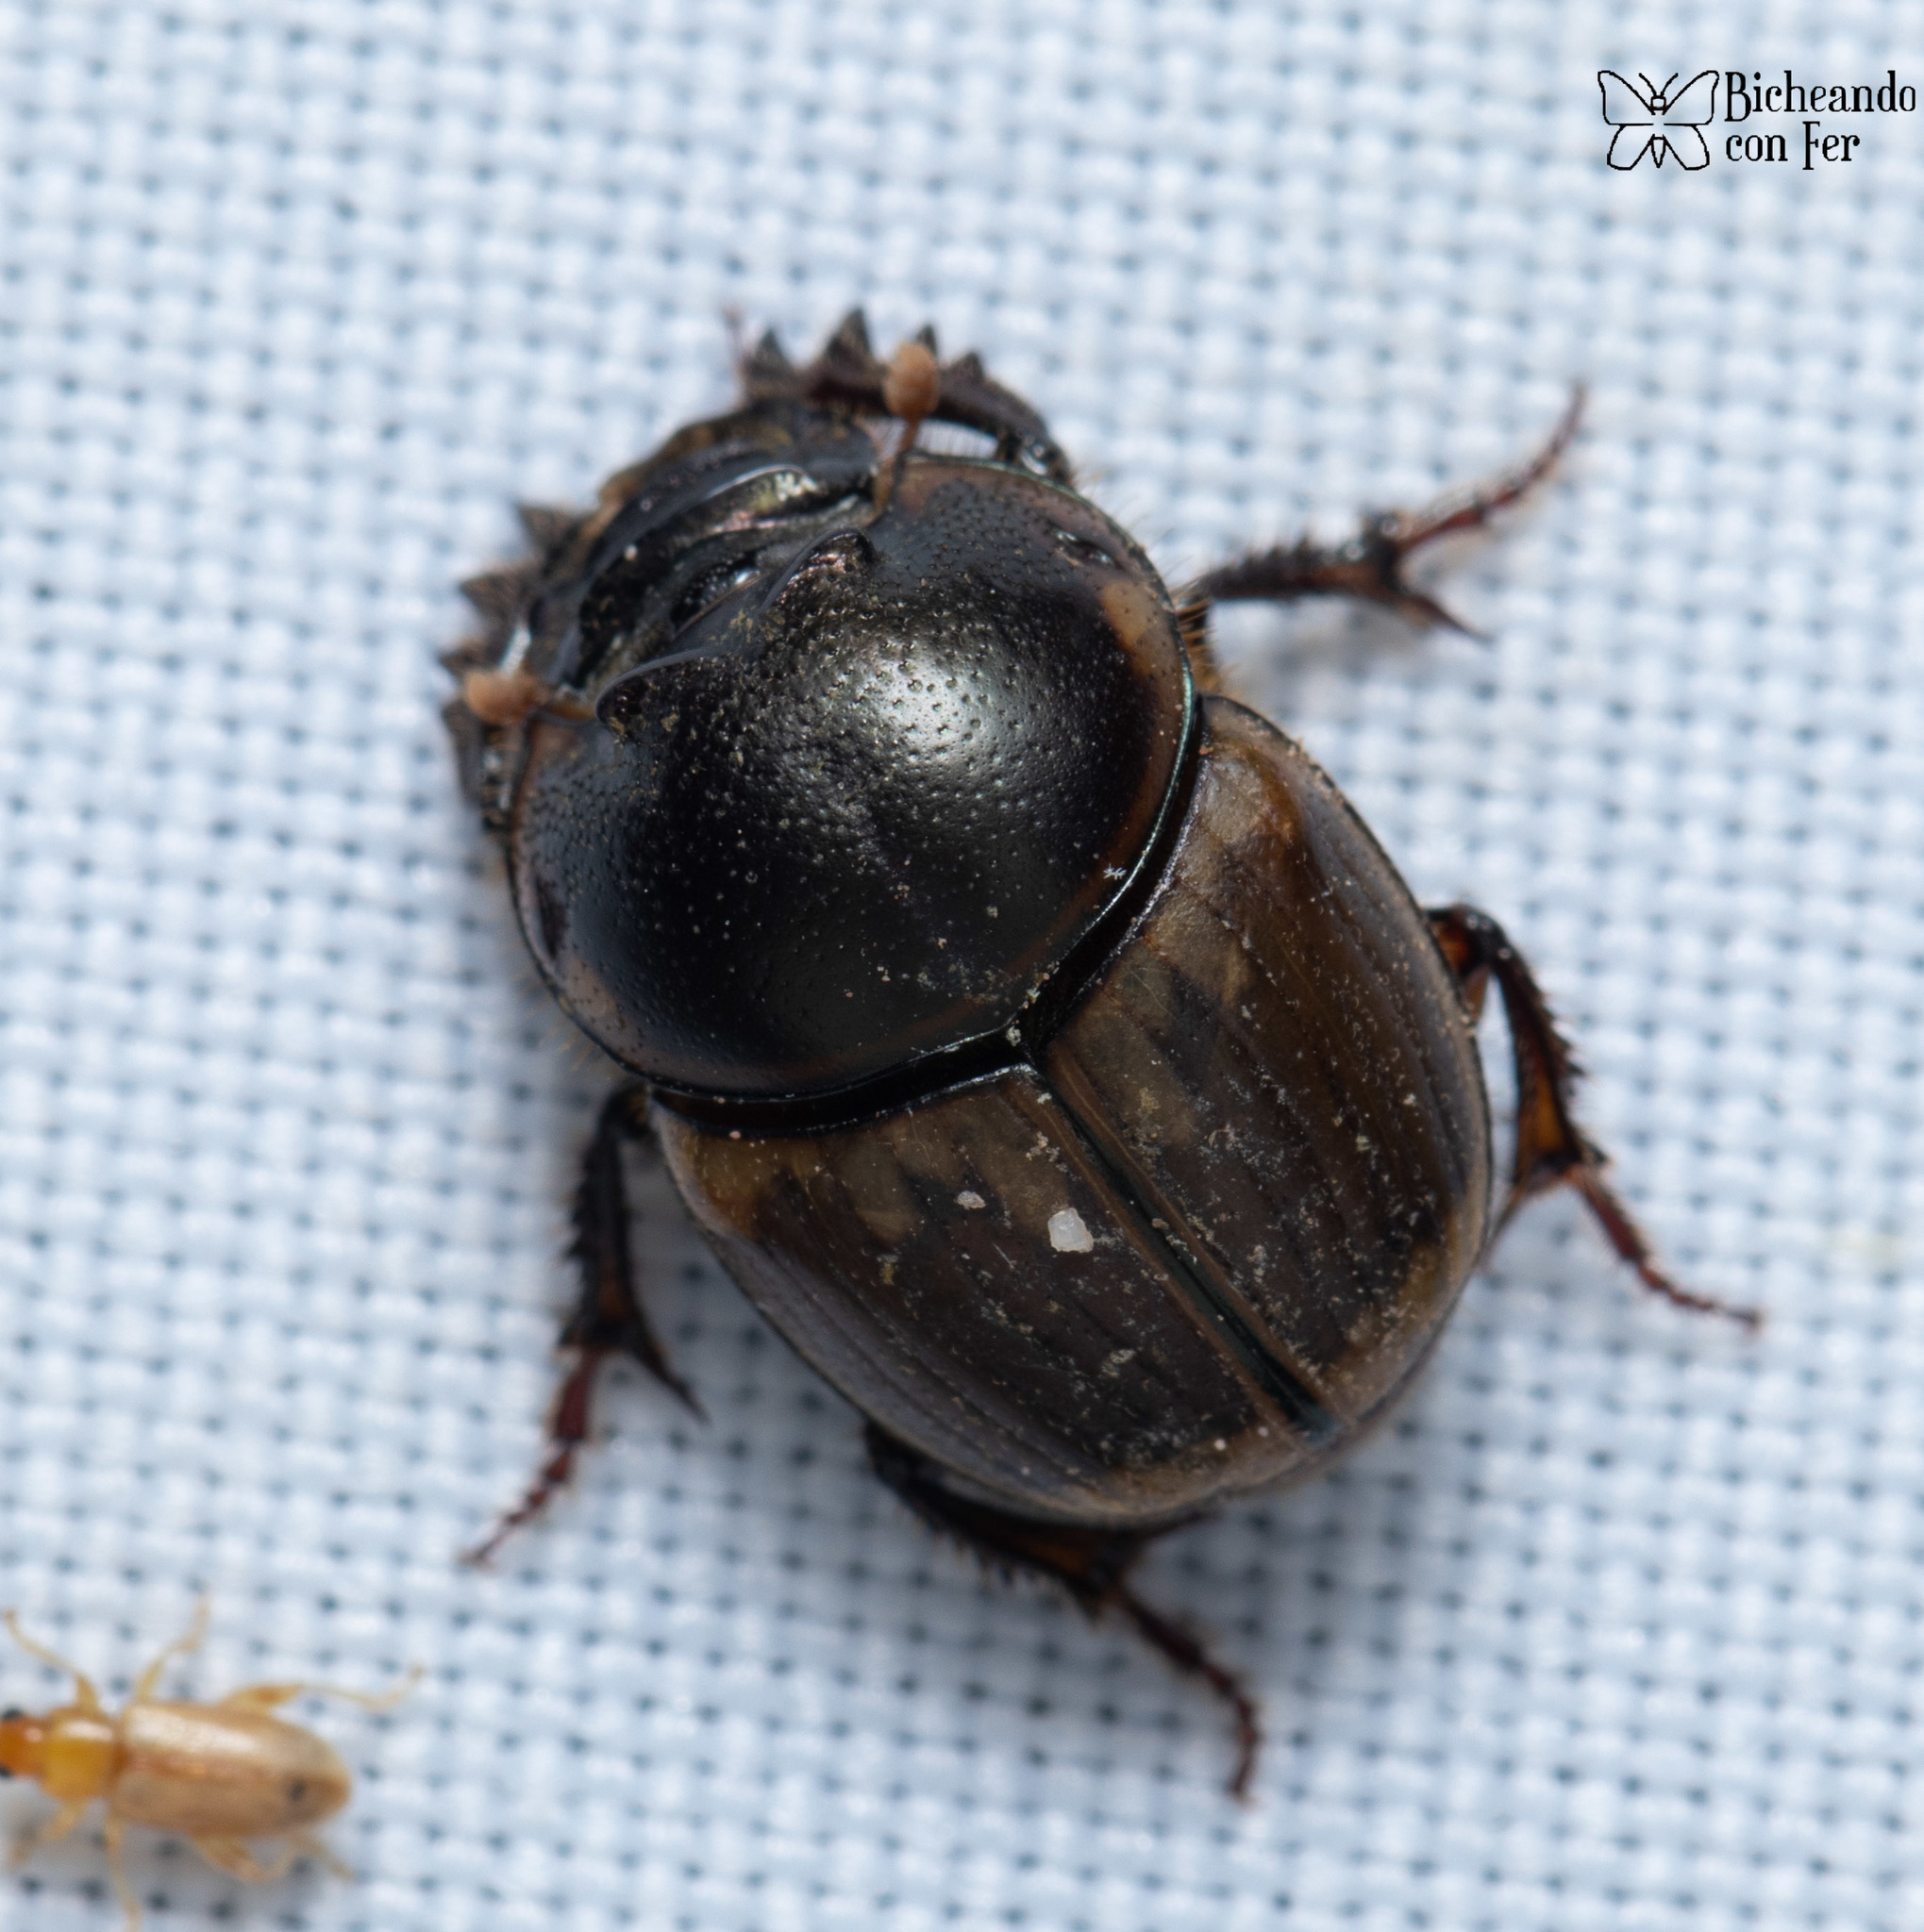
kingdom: Animalia
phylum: Arthropoda
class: Insecta
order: Coleoptera
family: Scarabaeidae
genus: Digitonthophagus
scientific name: Digitonthophagus gazella
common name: Brown dung beetle
